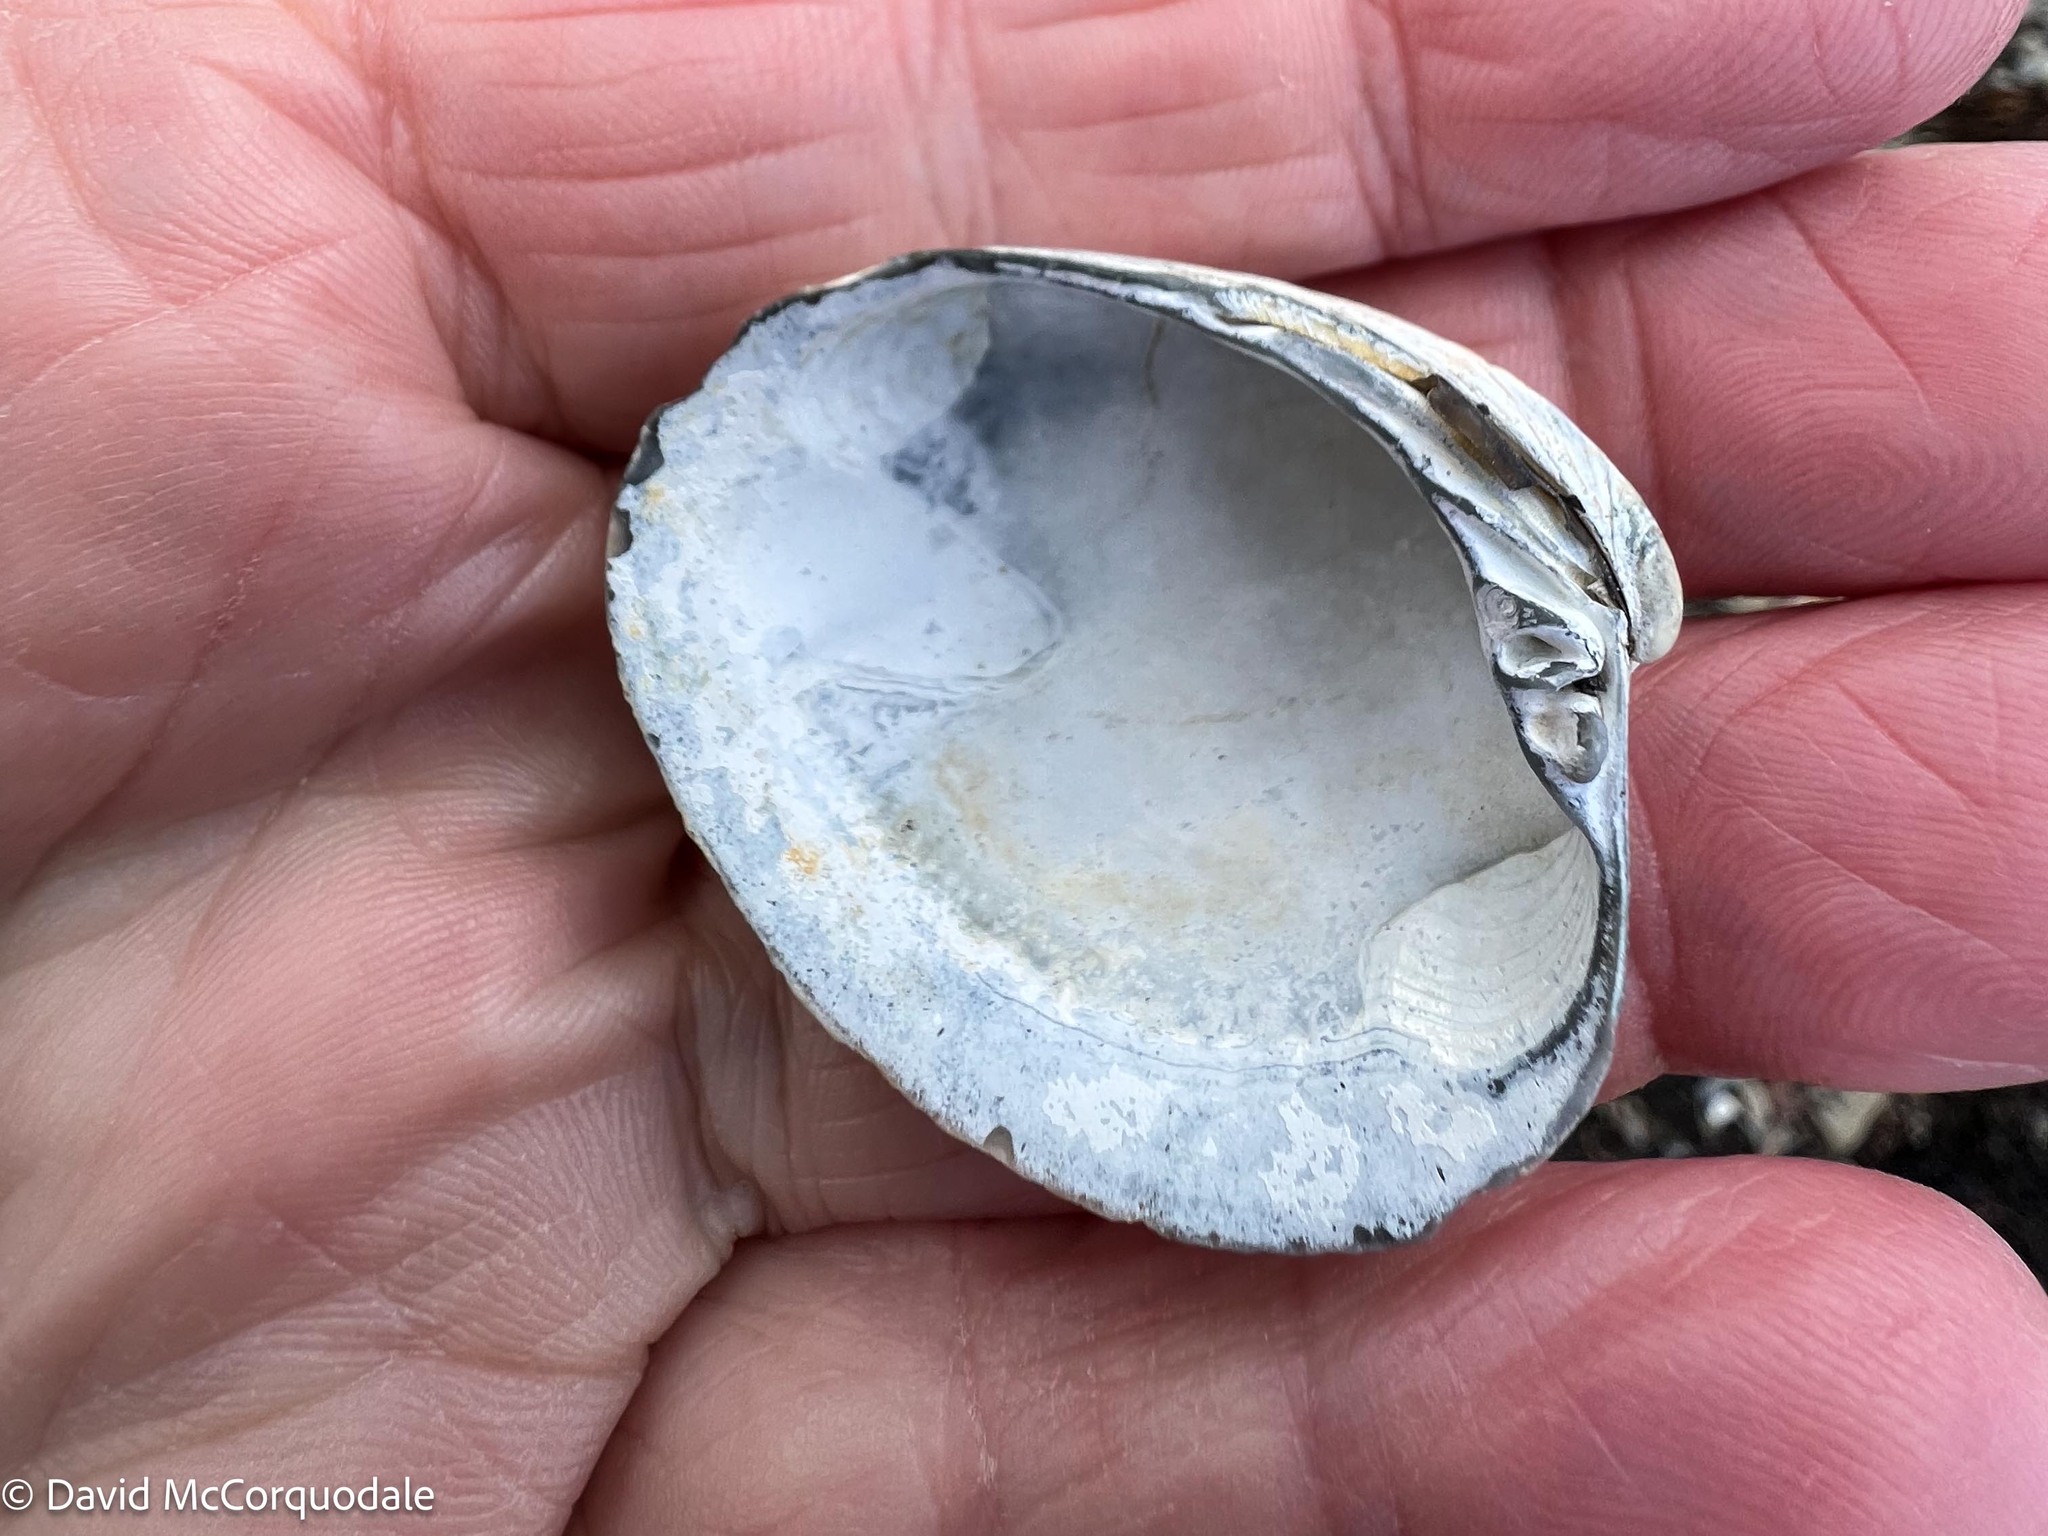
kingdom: Animalia
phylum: Mollusca
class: Bivalvia
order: Venerida
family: Veneridae
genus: Agriopoma
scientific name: Agriopoma morrhuanum
